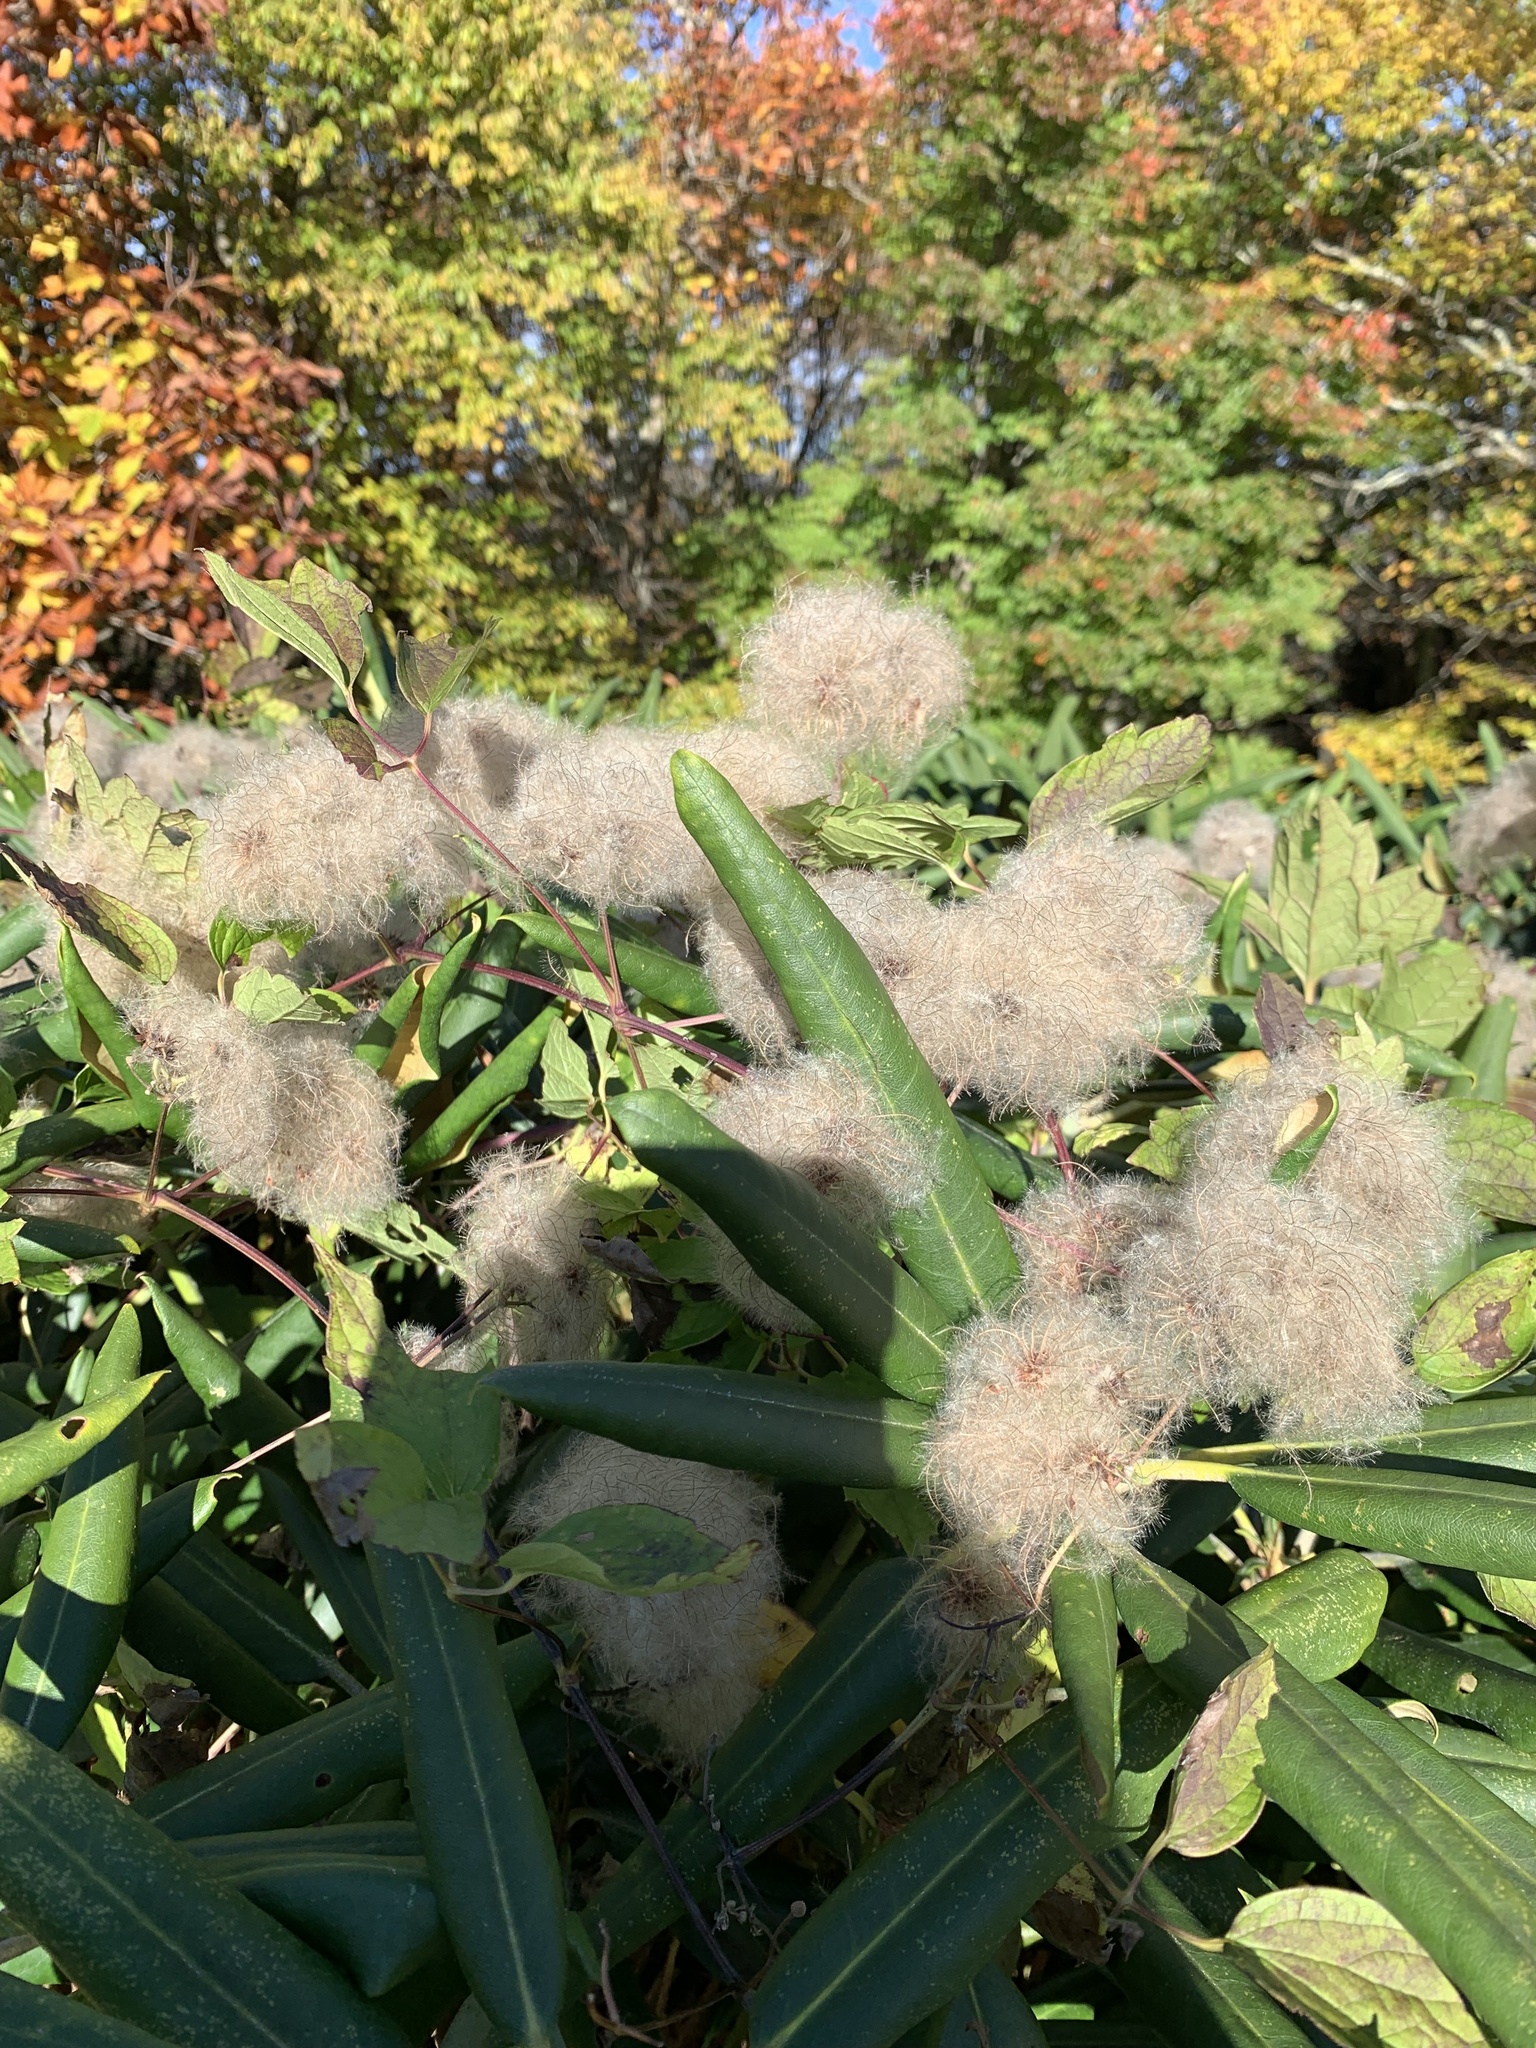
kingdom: Plantae
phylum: Tracheophyta
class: Magnoliopsida
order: Ranunculales
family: Ranunculaceae
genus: Clematis
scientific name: Clematis virginiana
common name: Virgin's-bower
